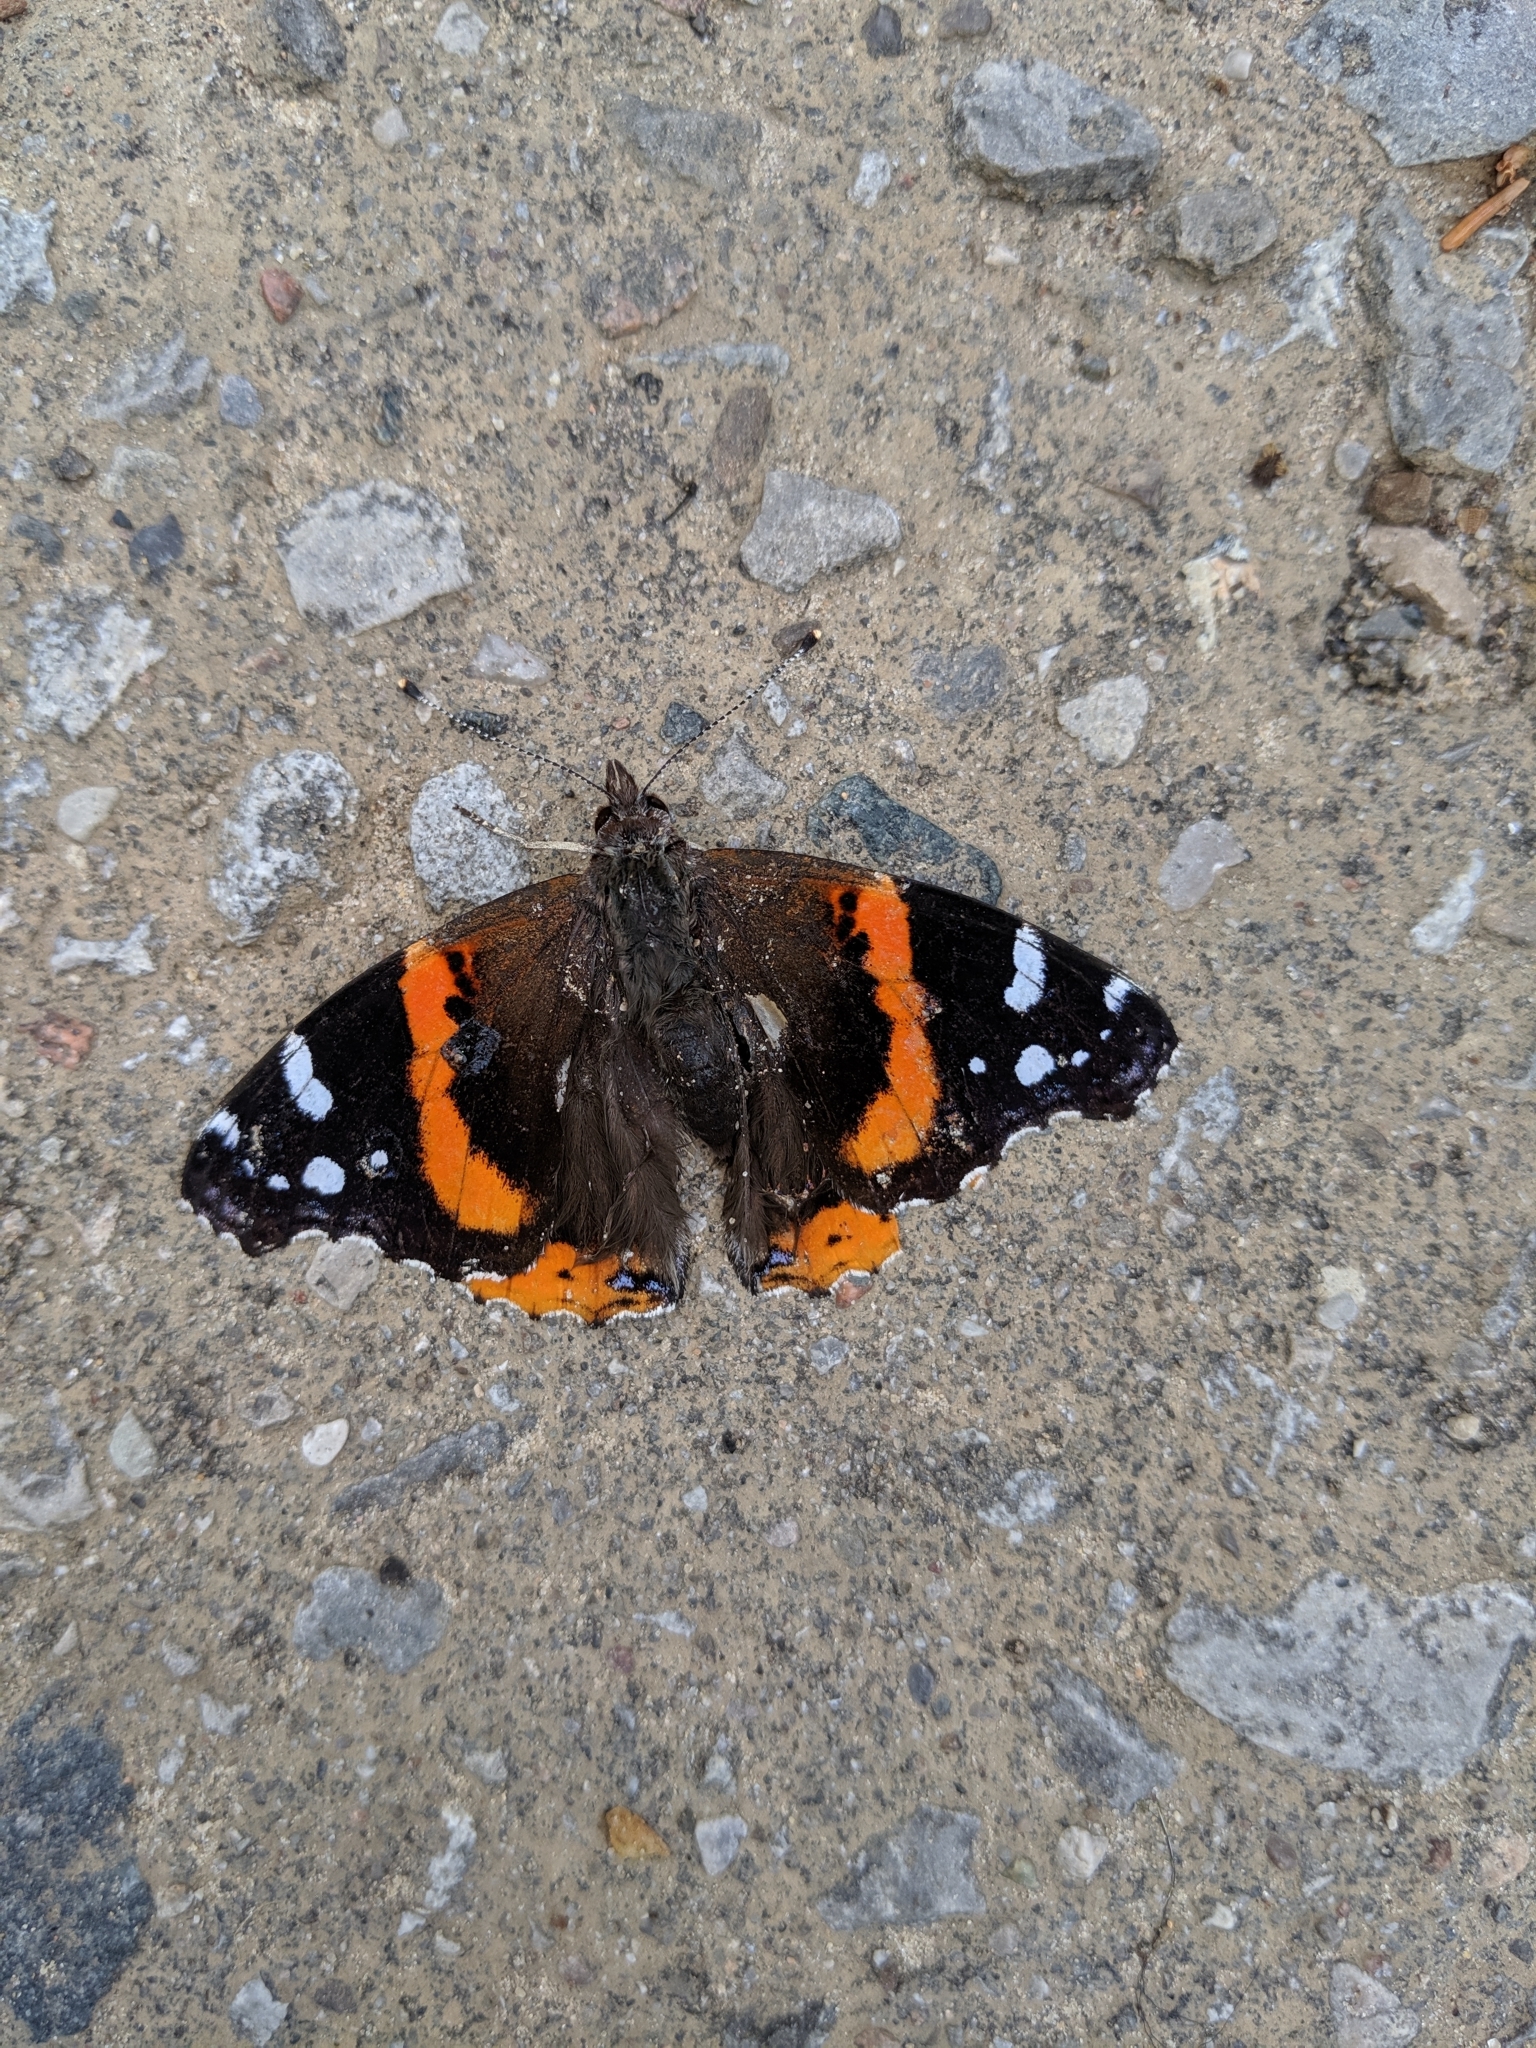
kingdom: Animalia
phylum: Arthropoda
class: Insecta
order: Lepidoptera
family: Nymphalidae
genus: Vanessa
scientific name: Vanessa atalanta
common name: Red admiral
